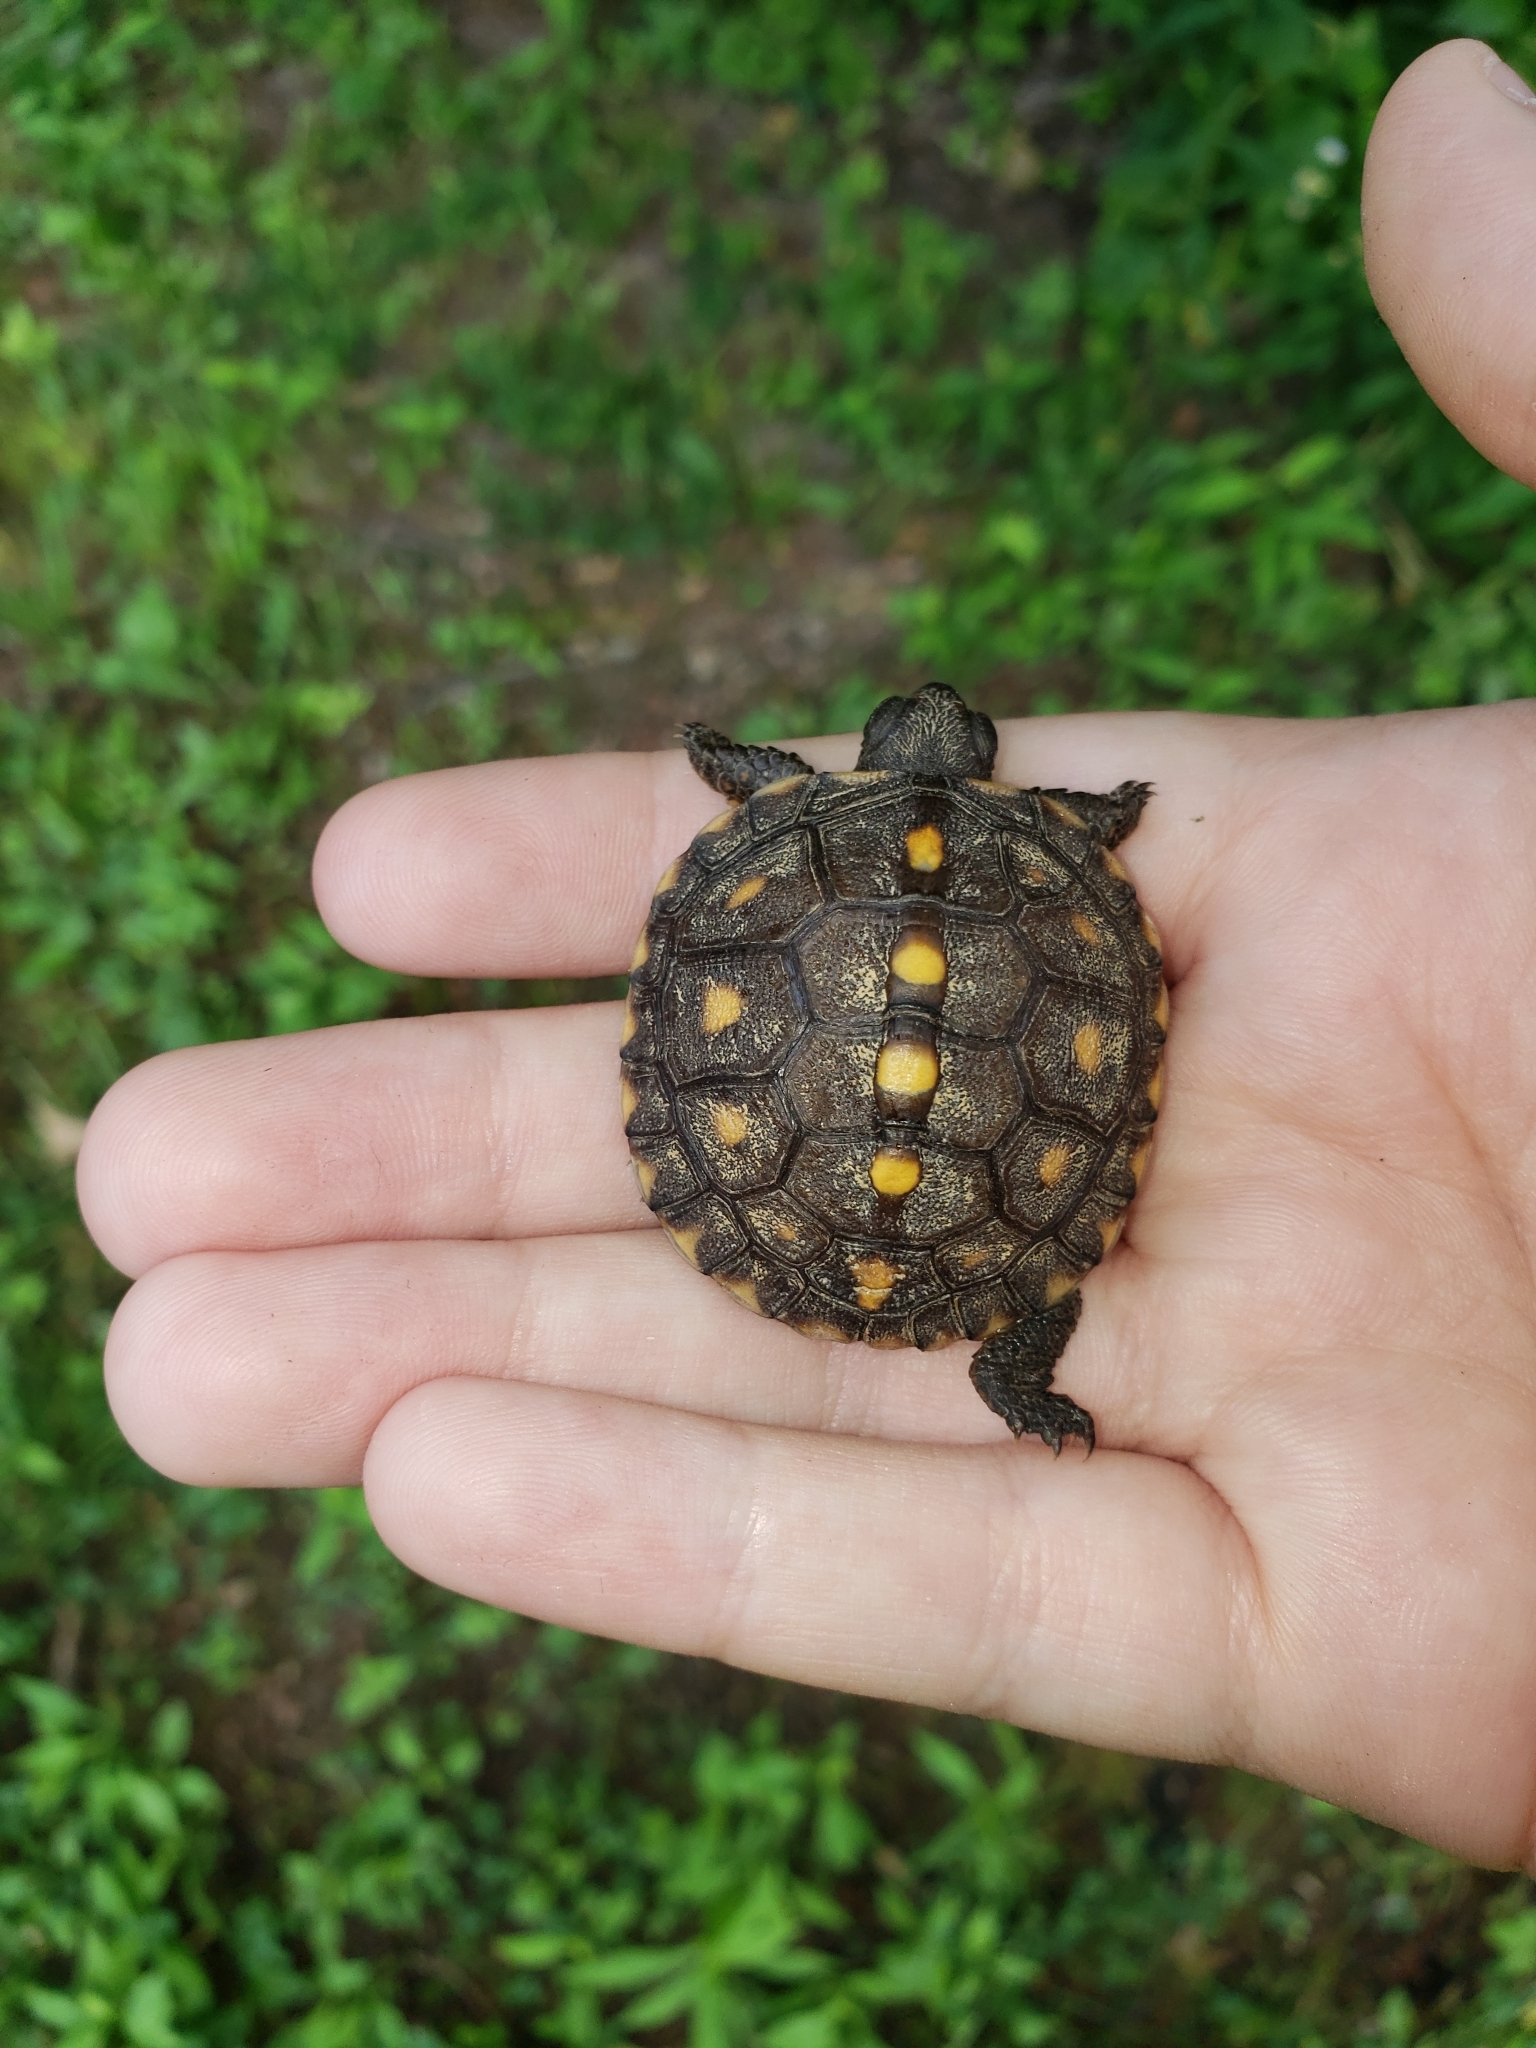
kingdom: Animalia
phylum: Chordata
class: Testudines
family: Emydidae
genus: Terrapene
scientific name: Terrapene carolina
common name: Common box turtle
